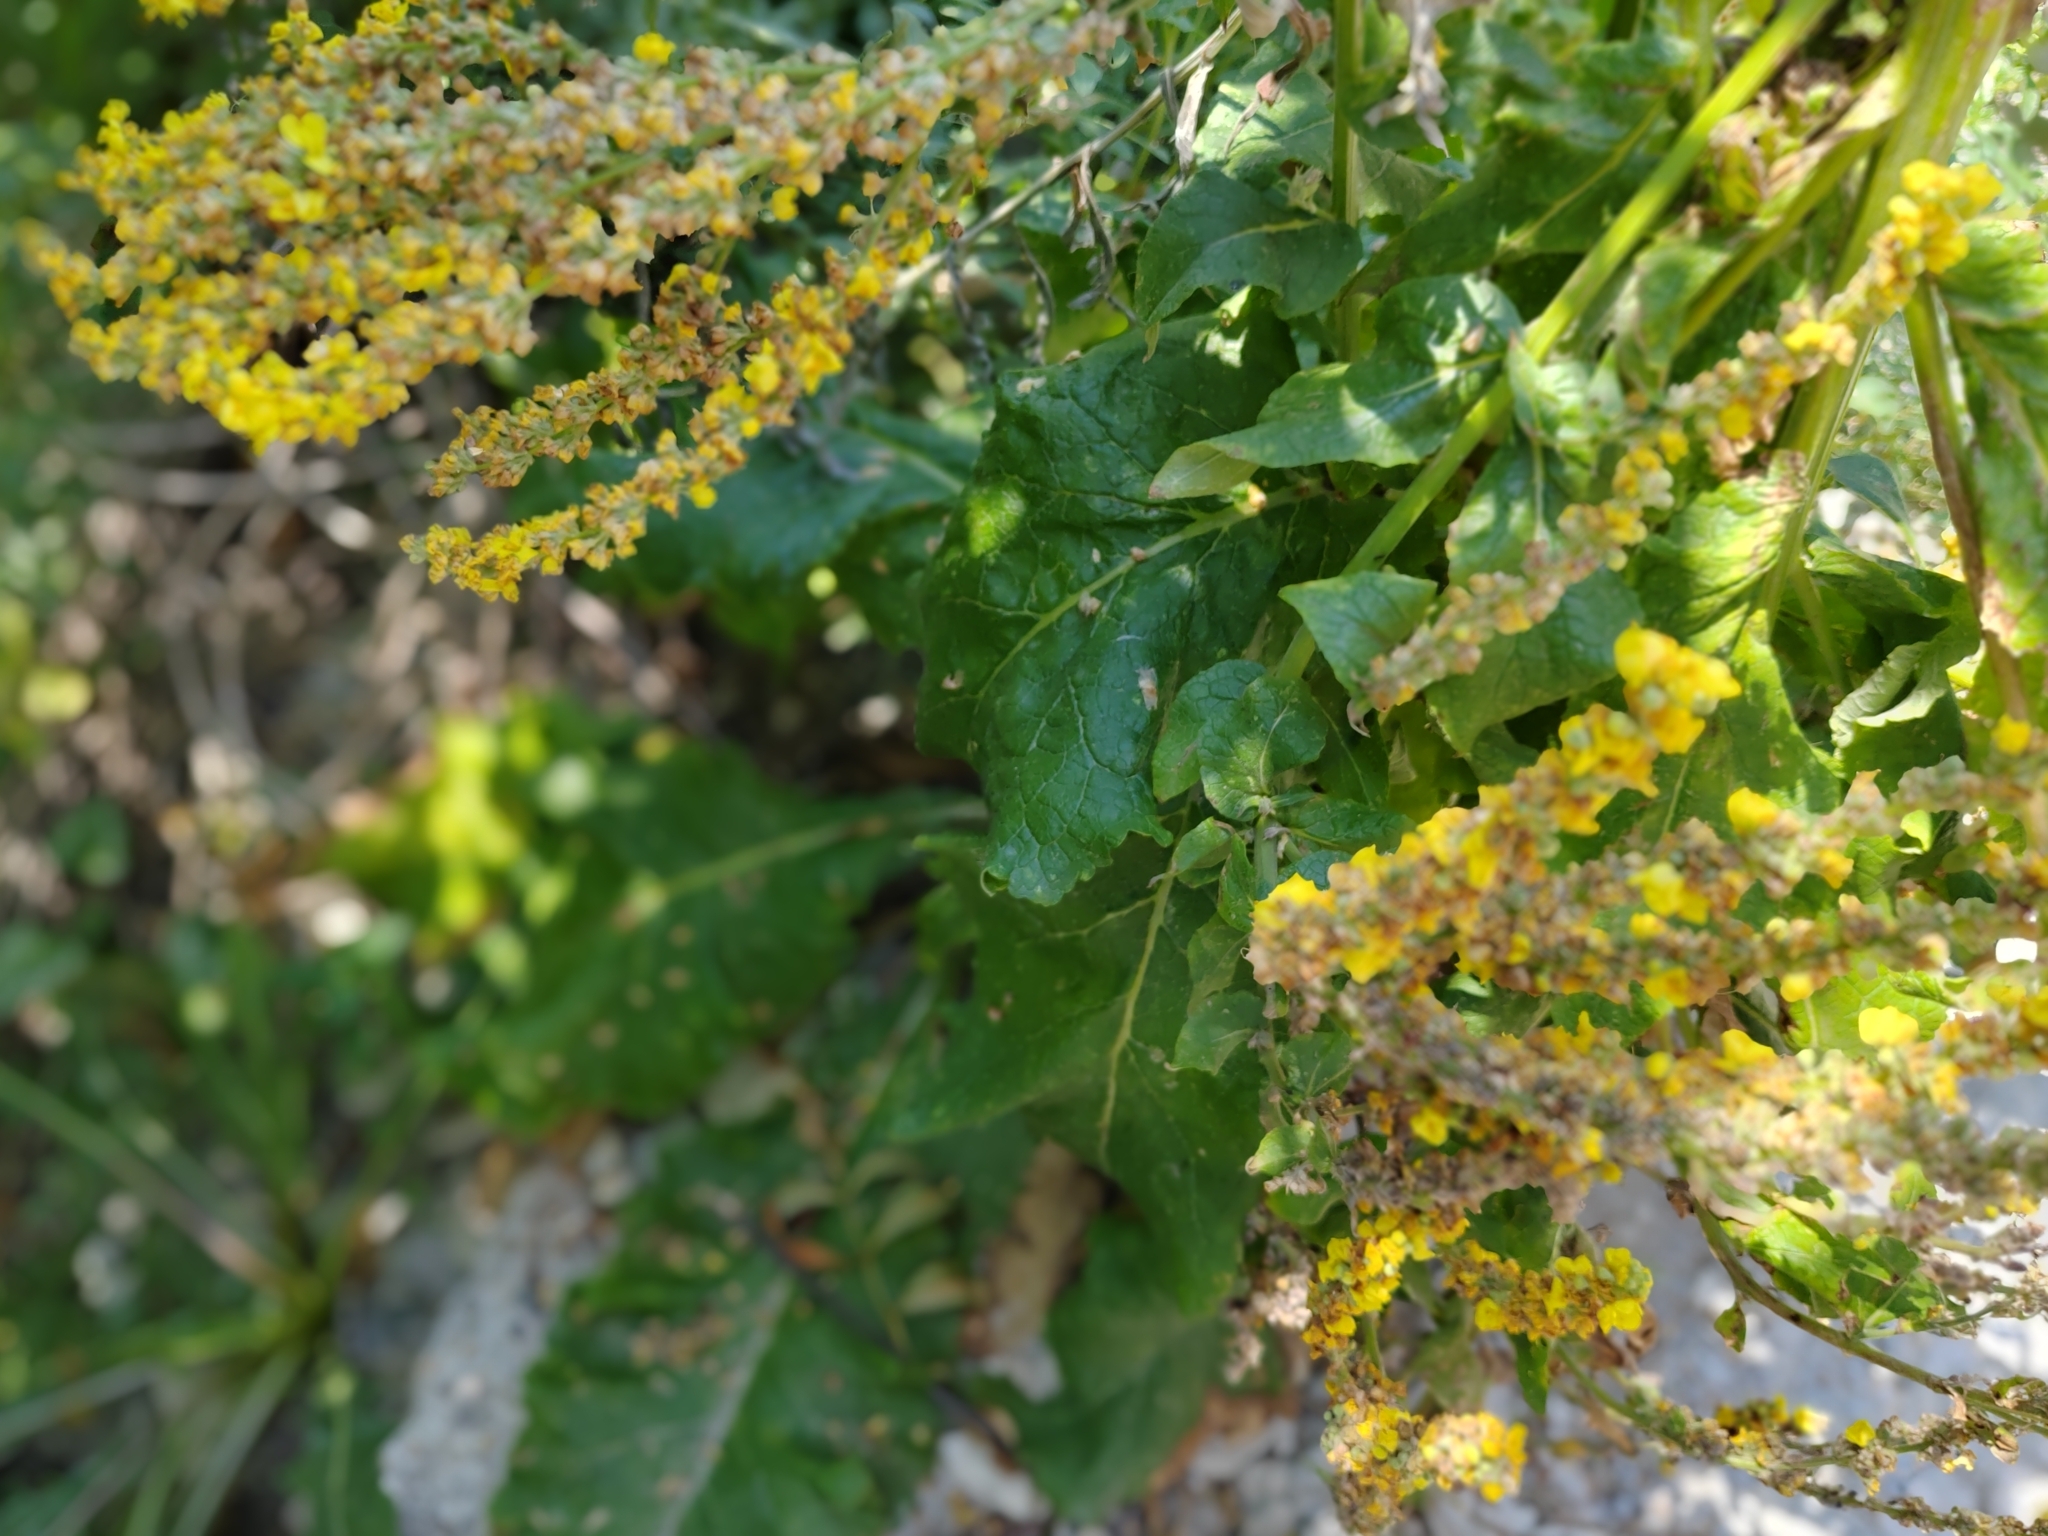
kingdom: Plantae
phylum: Tracheophyta
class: Magnoliopsida
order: Lamiales
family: Scrophulariaceae
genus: Verbascum
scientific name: Verbascum lychnitis
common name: White mullein
